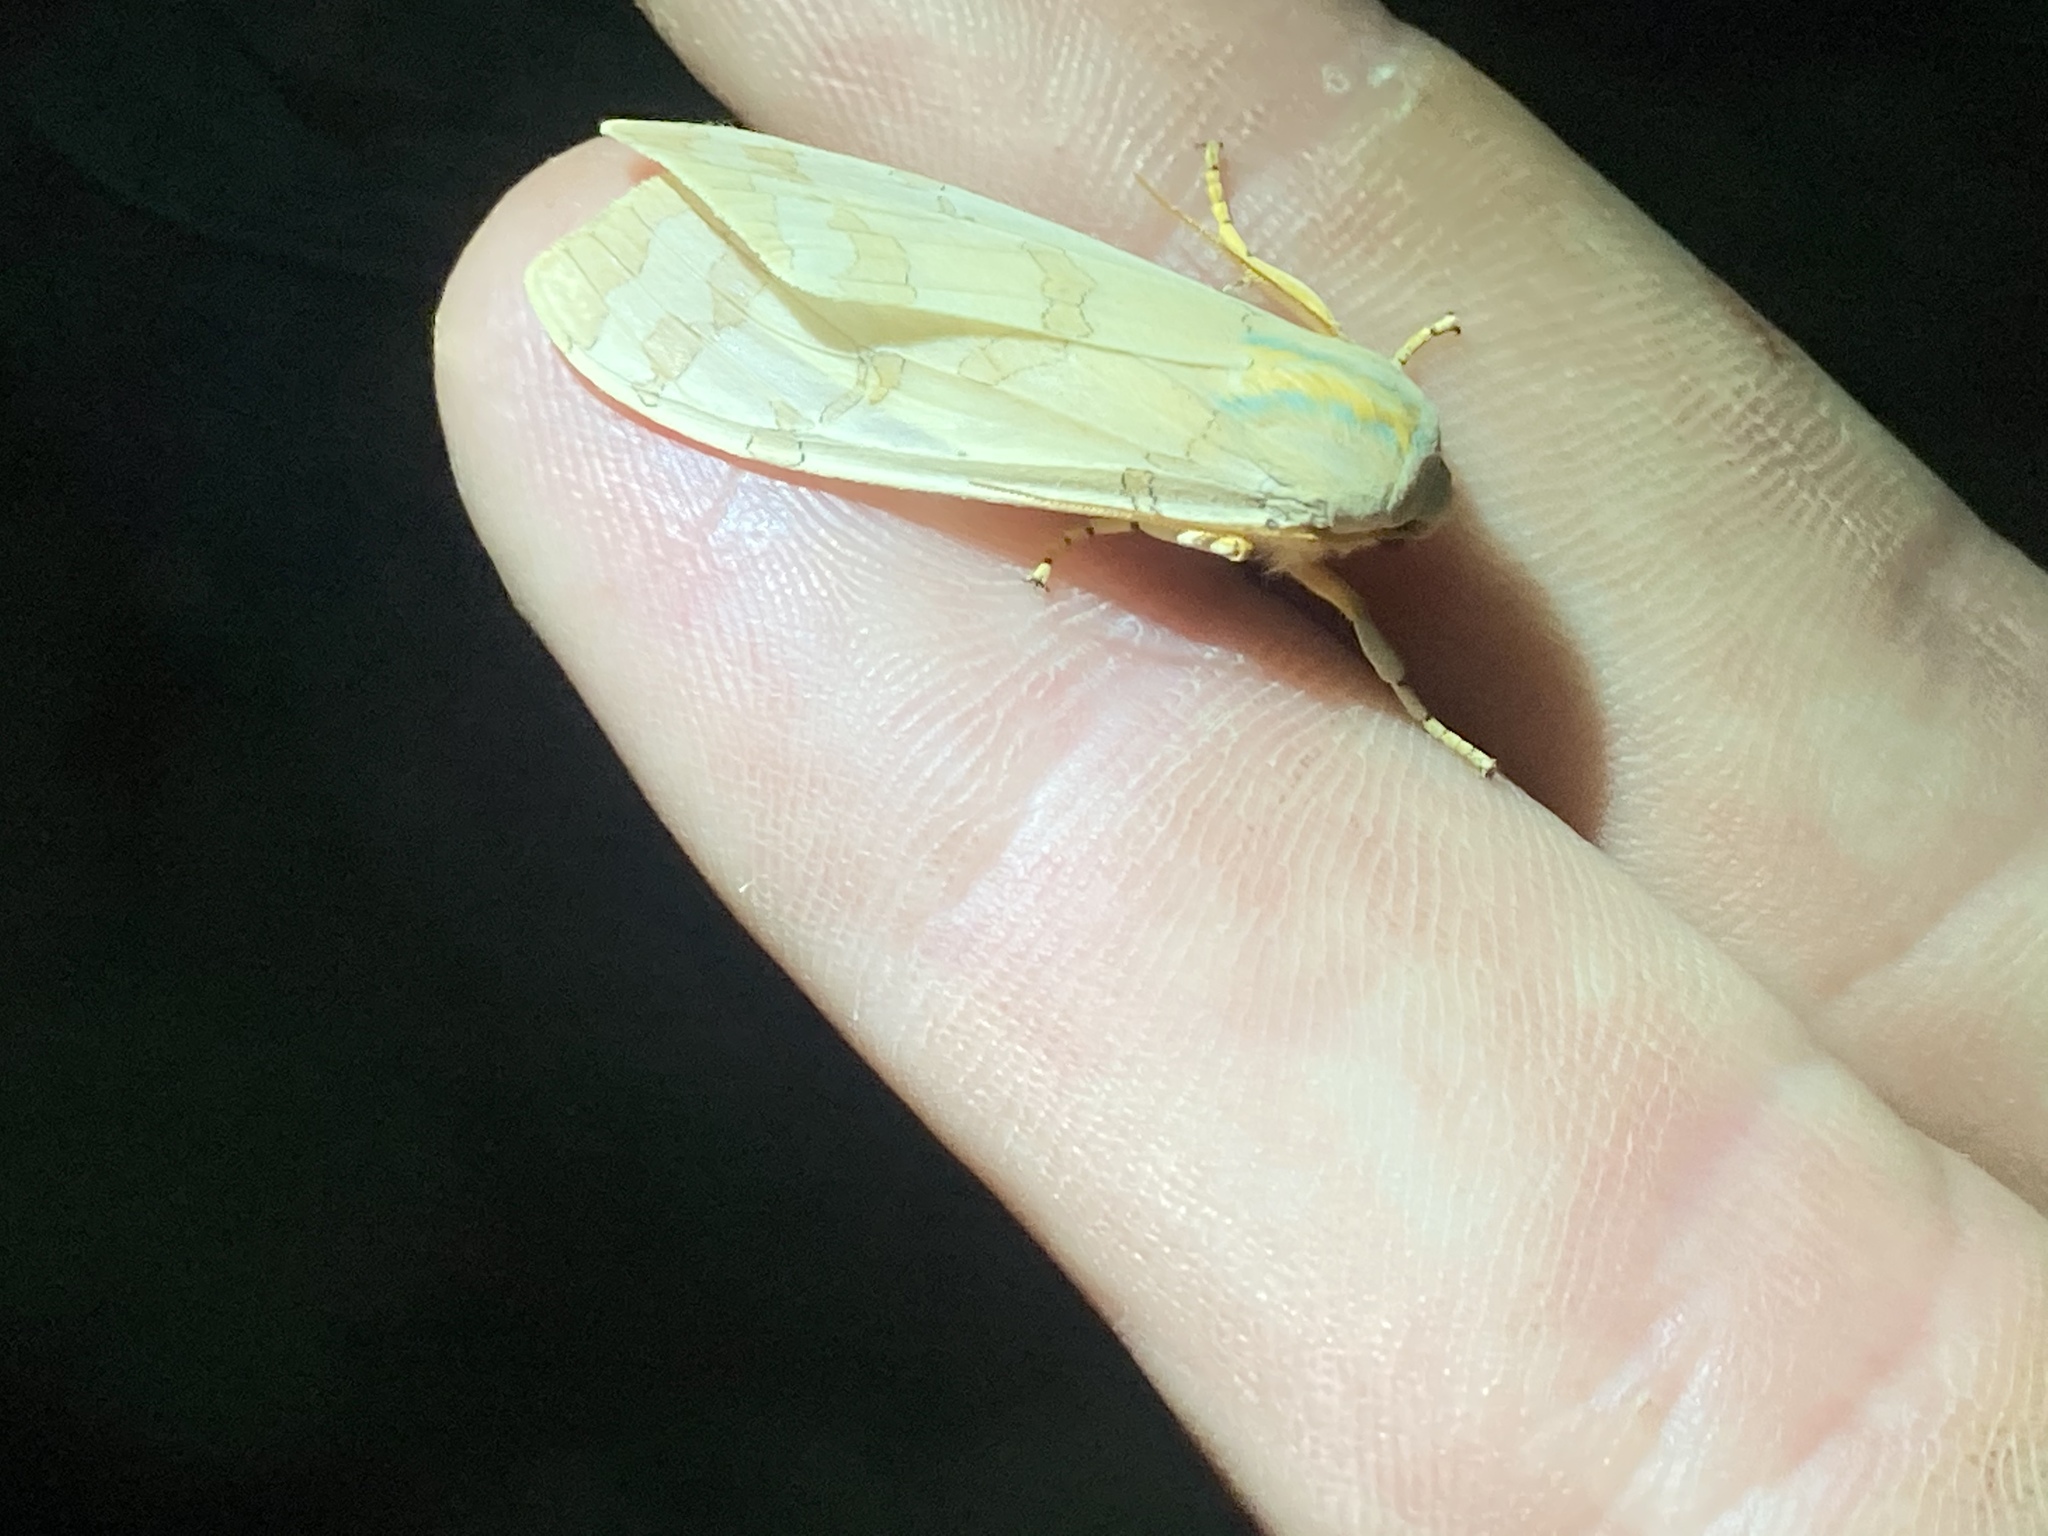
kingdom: Animalia
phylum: Arthropoda
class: Insecta
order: Lepidoptera
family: Erebidae
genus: Halysidota
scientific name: Halysidota tessellaris
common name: Banded tussock moth
